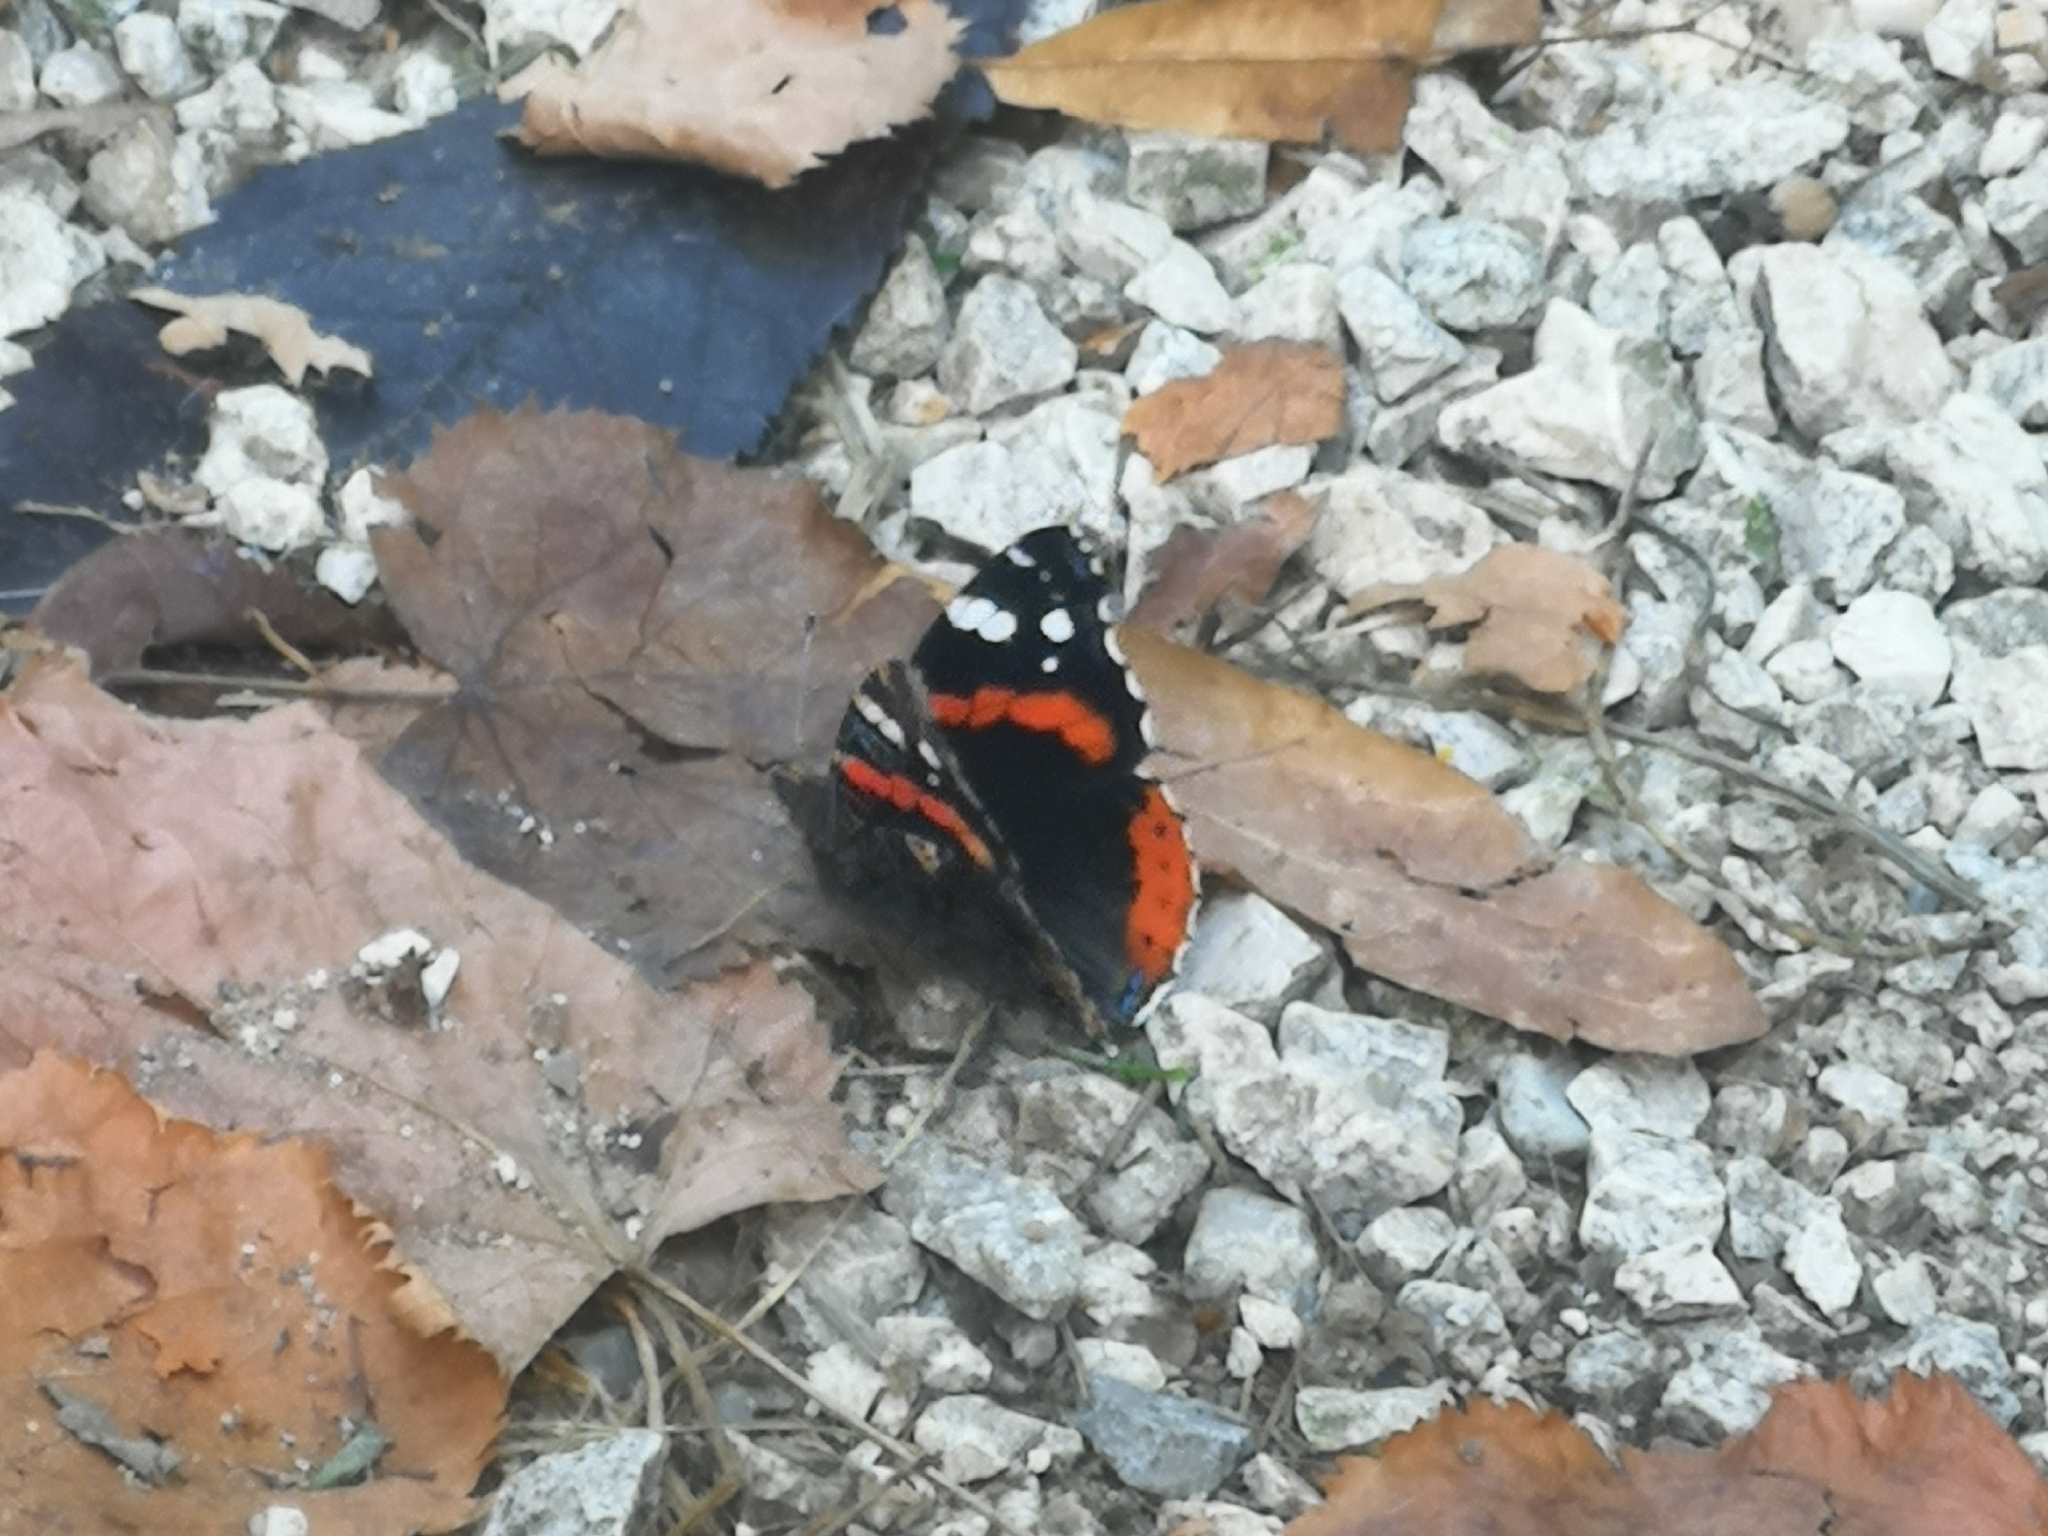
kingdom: Animalia
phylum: Arthropoda
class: Insecta
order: Lepidoptera
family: Nymphalidae
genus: Vanessa
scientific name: Vanessa atalanta
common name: Red admiral
